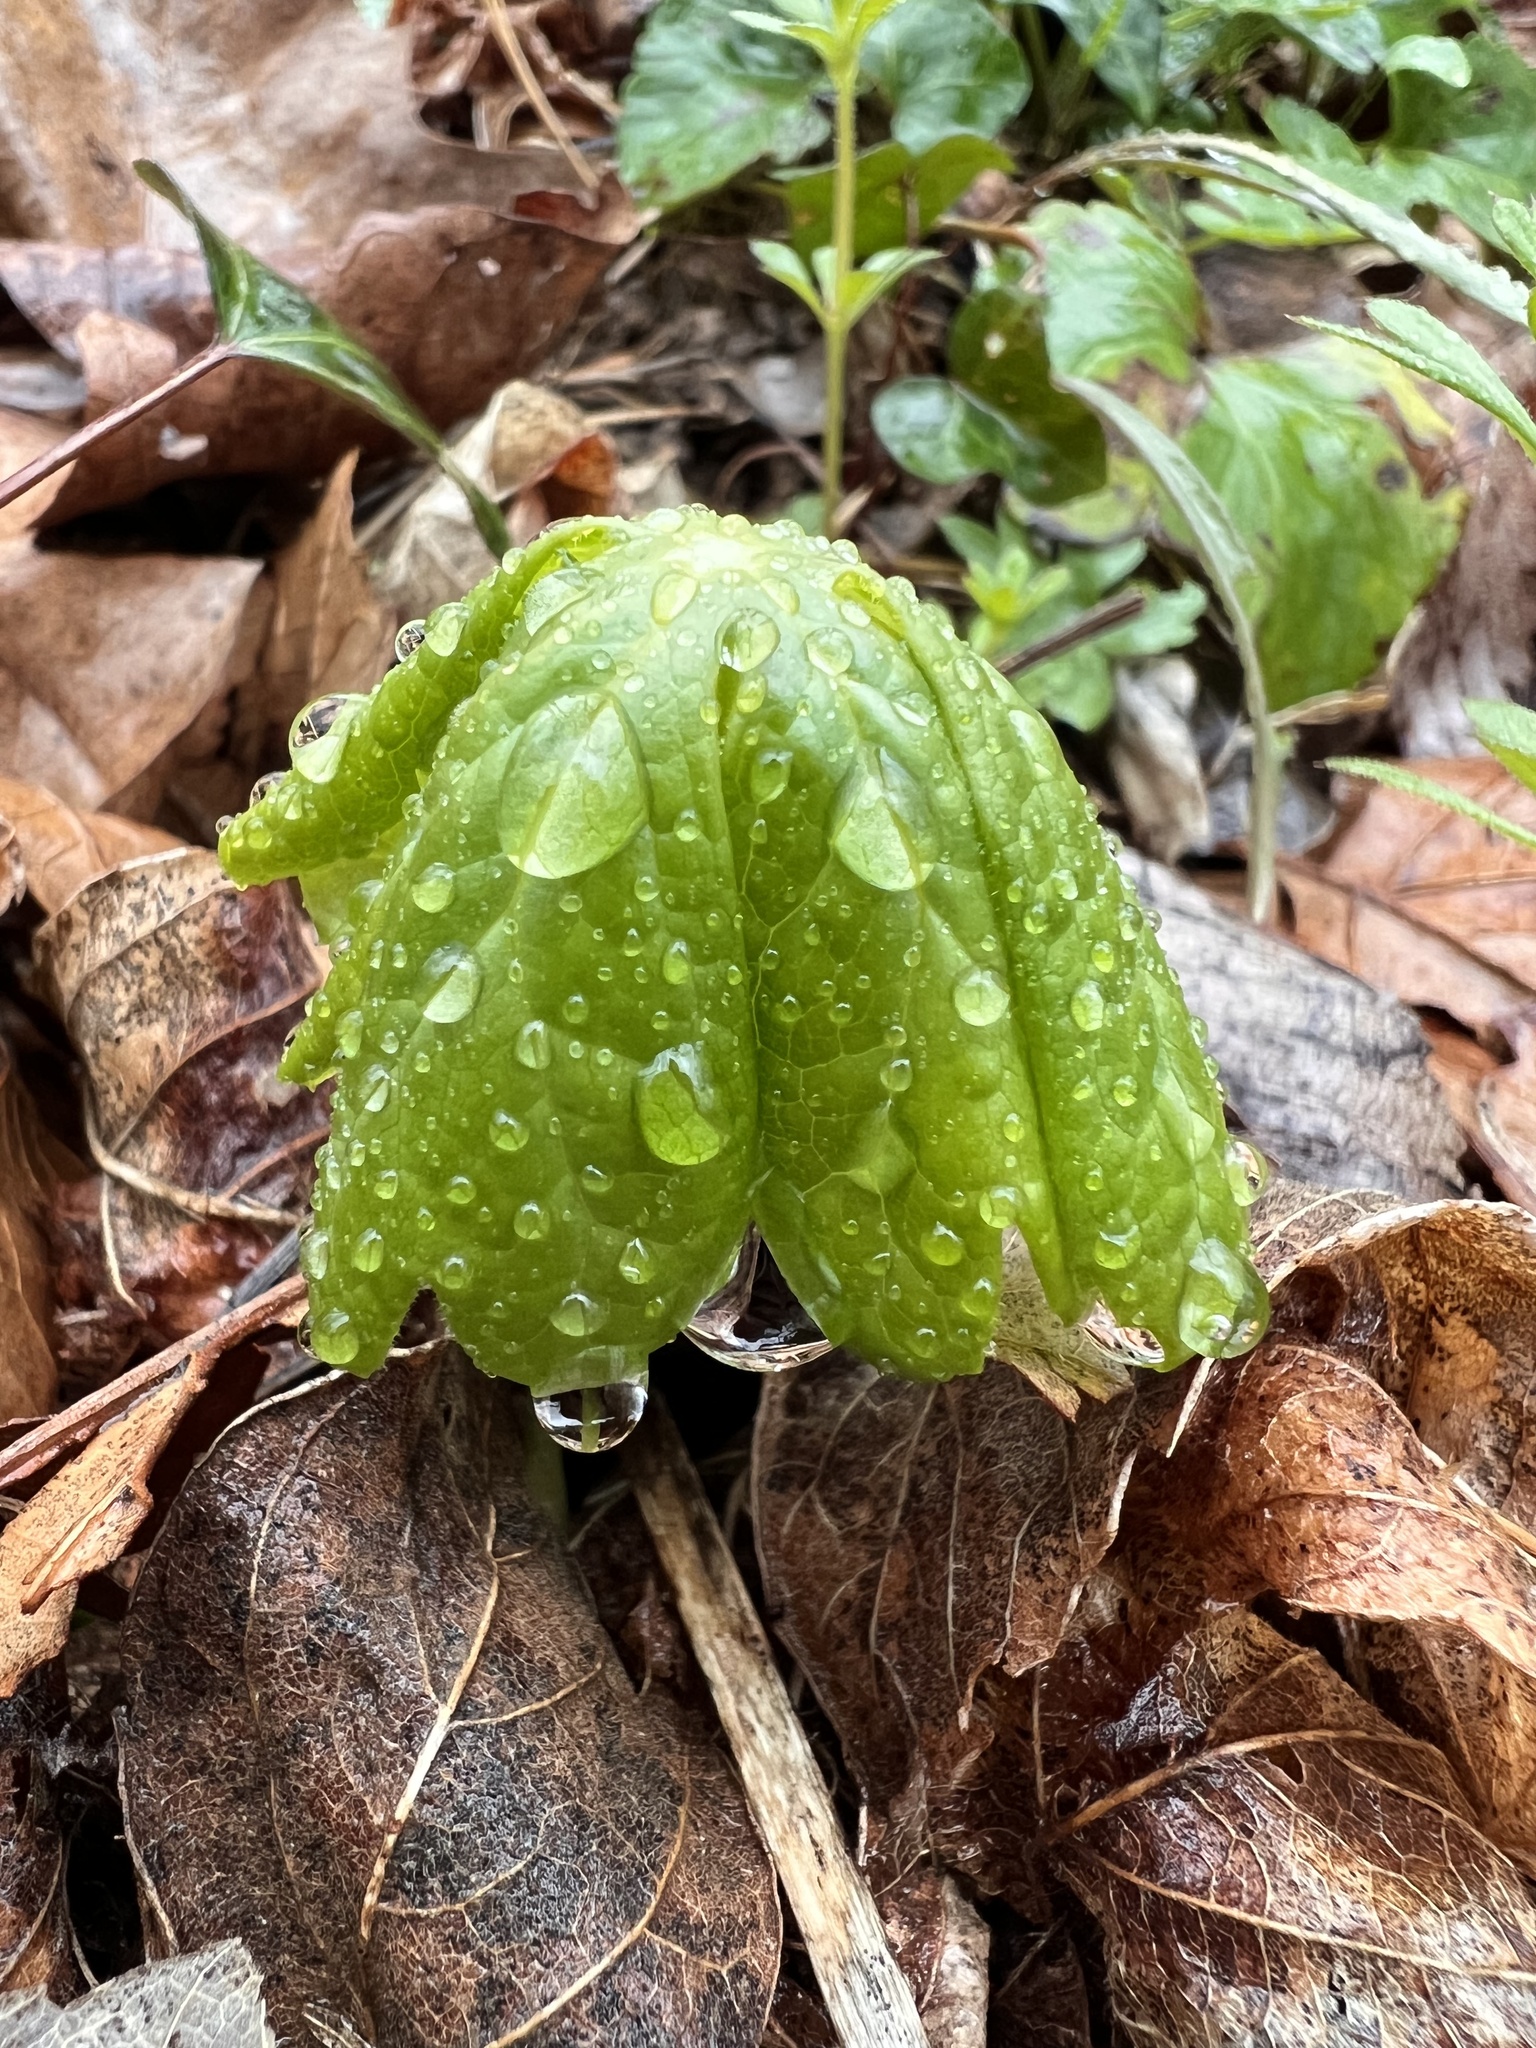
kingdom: Plantae
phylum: Tracheophyta
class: Magnoliopsida
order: Ranunculales
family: Berberidaceae
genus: Podophyllum
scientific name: Podophyllum peltatum
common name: Wild mandrake
